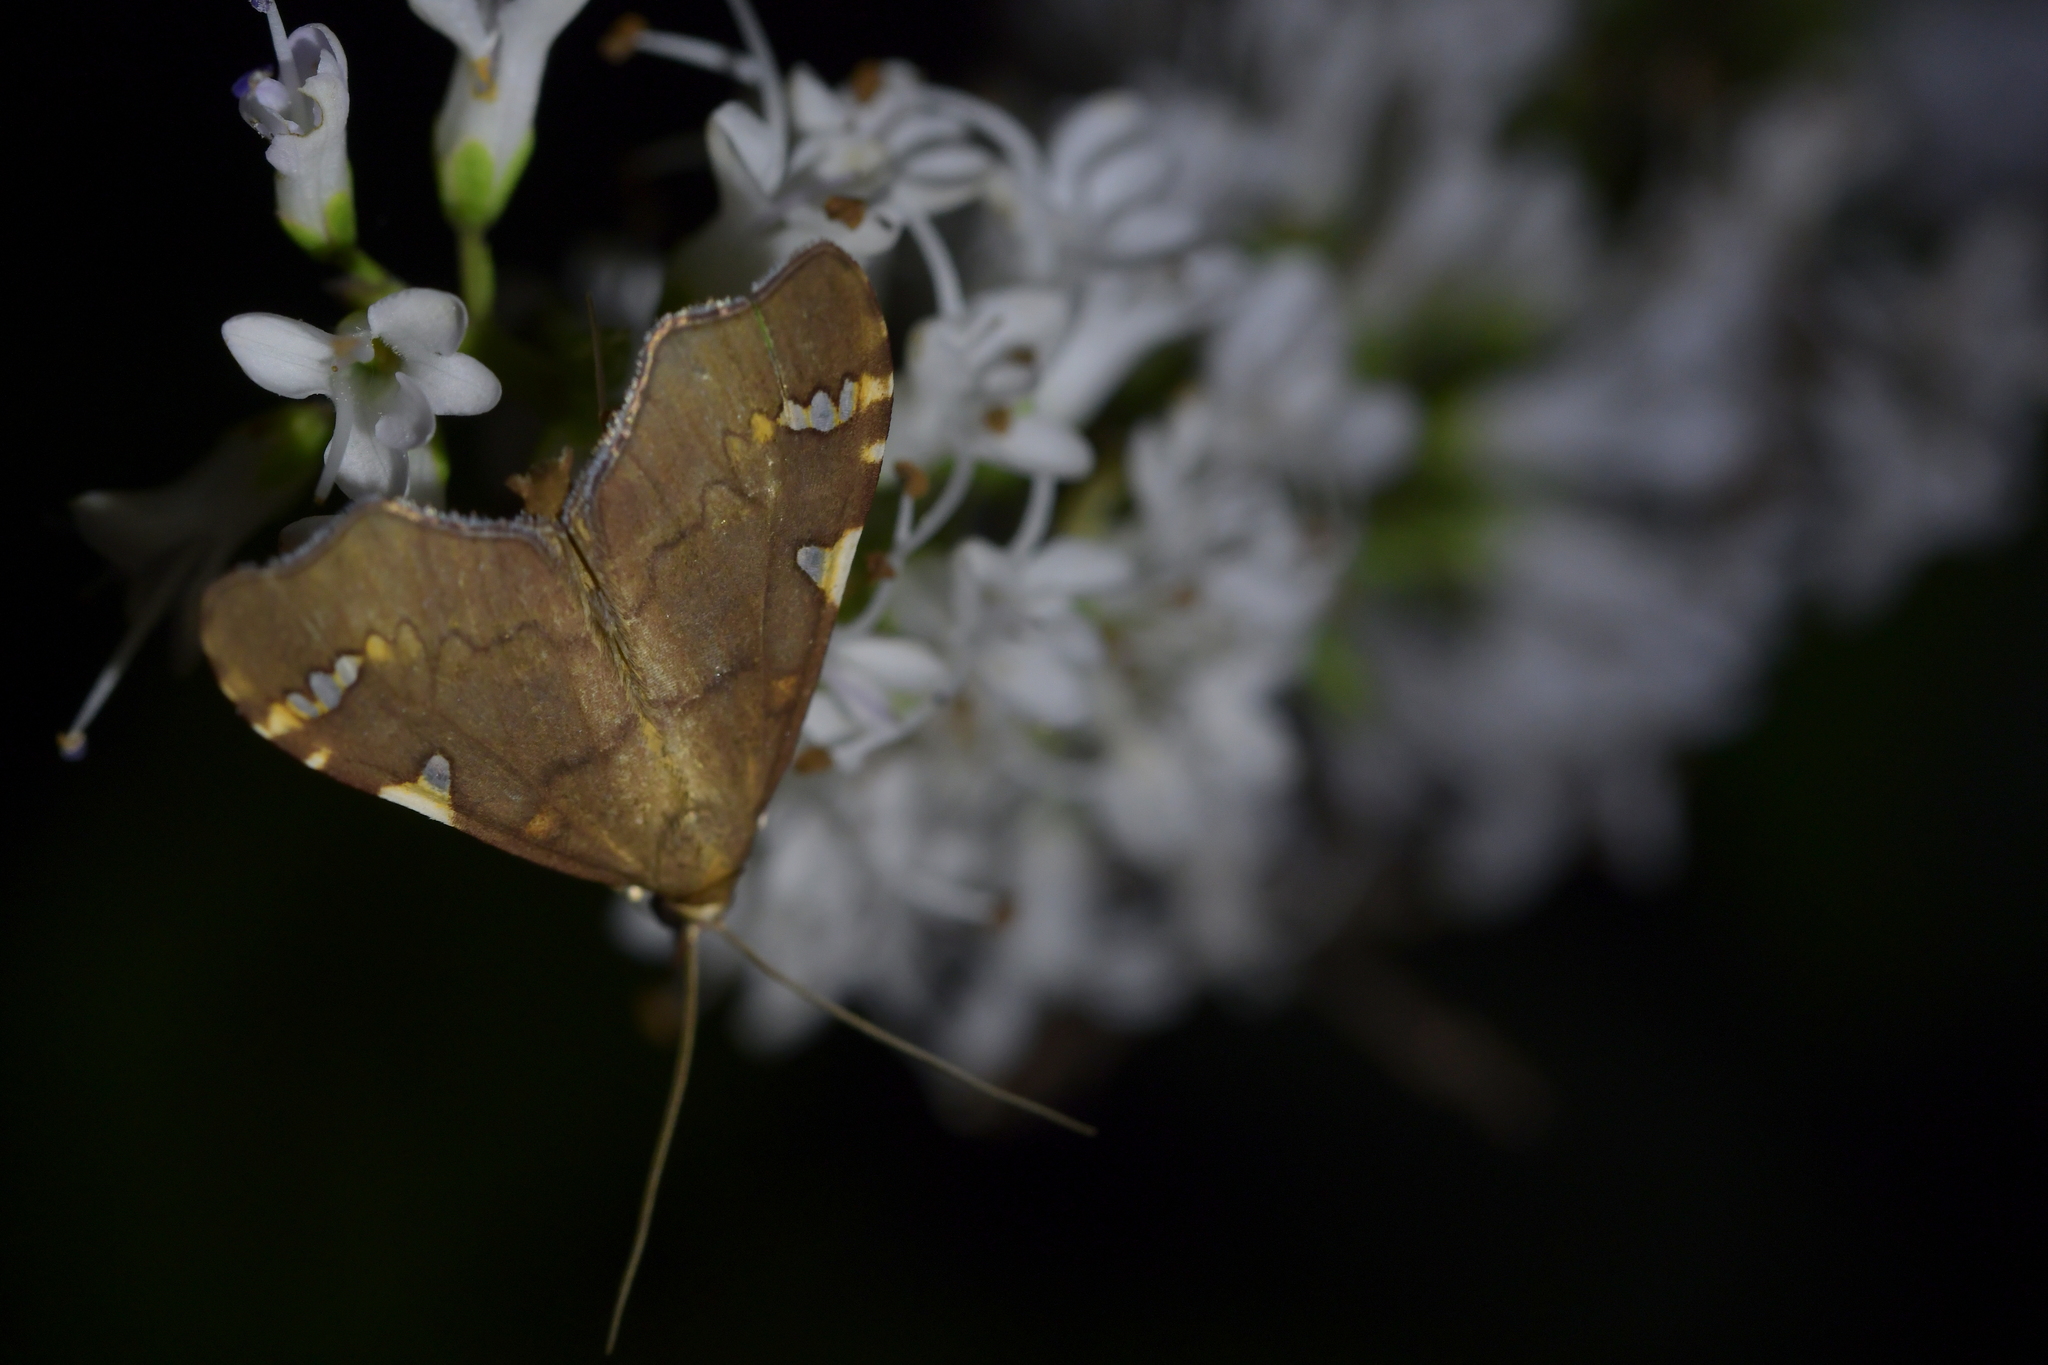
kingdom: Animalia
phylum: Arthropoda
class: Insecta
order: Lepidoptera
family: Crambidae
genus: Deana
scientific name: Deana hybreasalis
